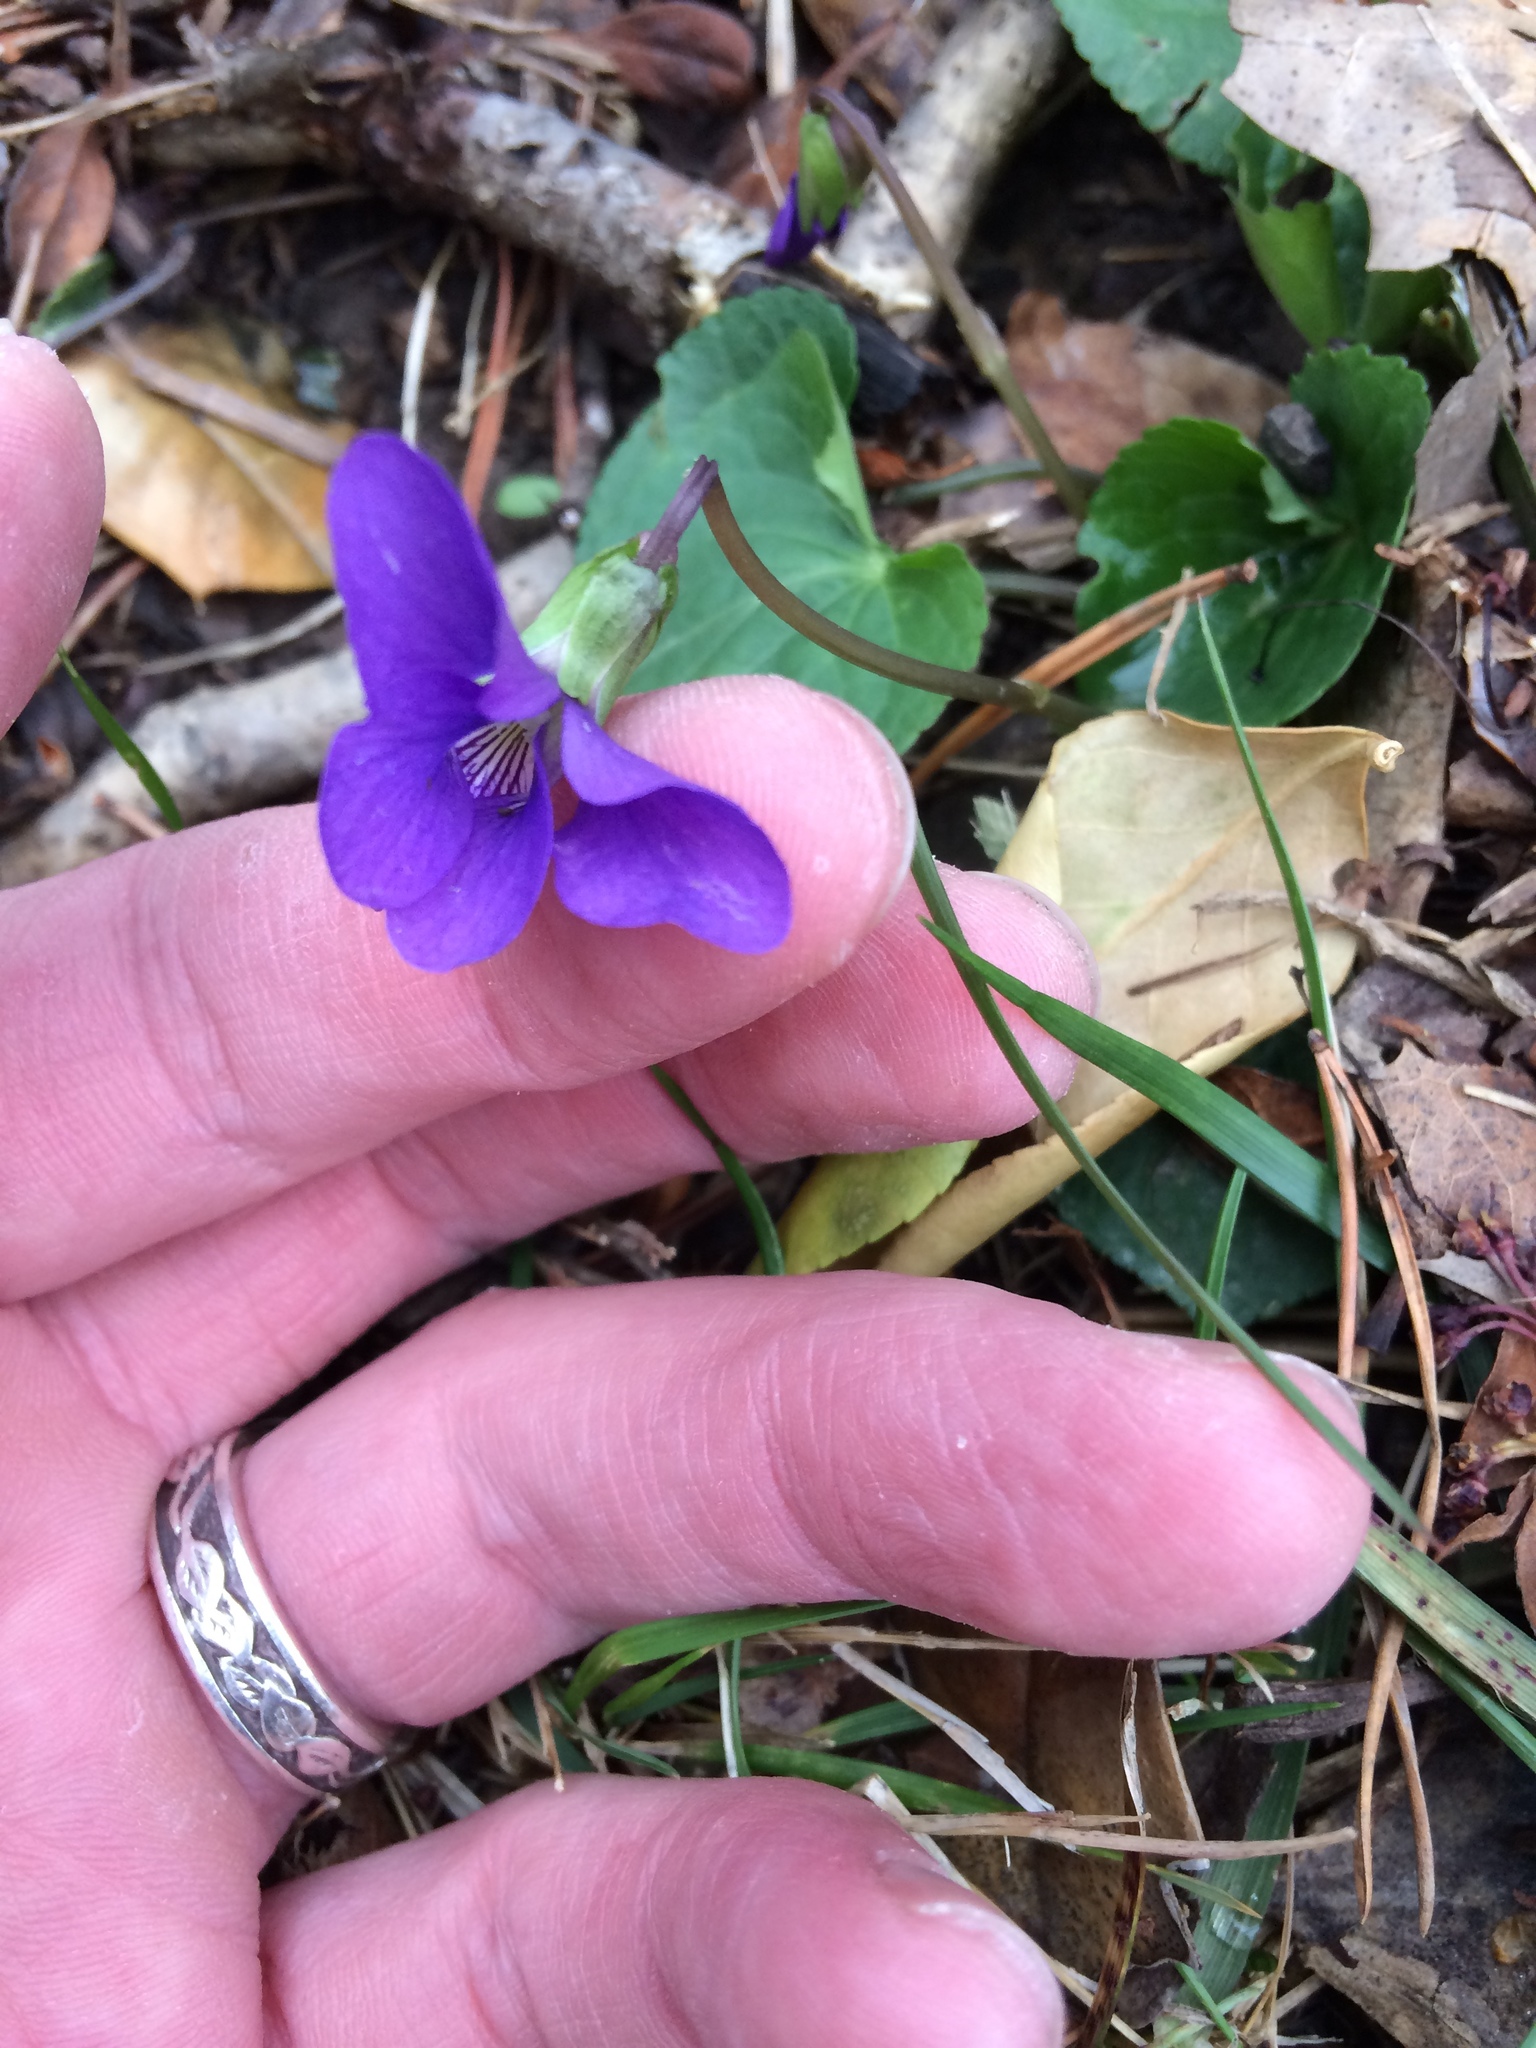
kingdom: Plantae
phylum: Tracheophyta
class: Magnoliopsida
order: Malpighiales
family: Violaceae
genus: Viola
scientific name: Viola sororia
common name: Dooryard violet
